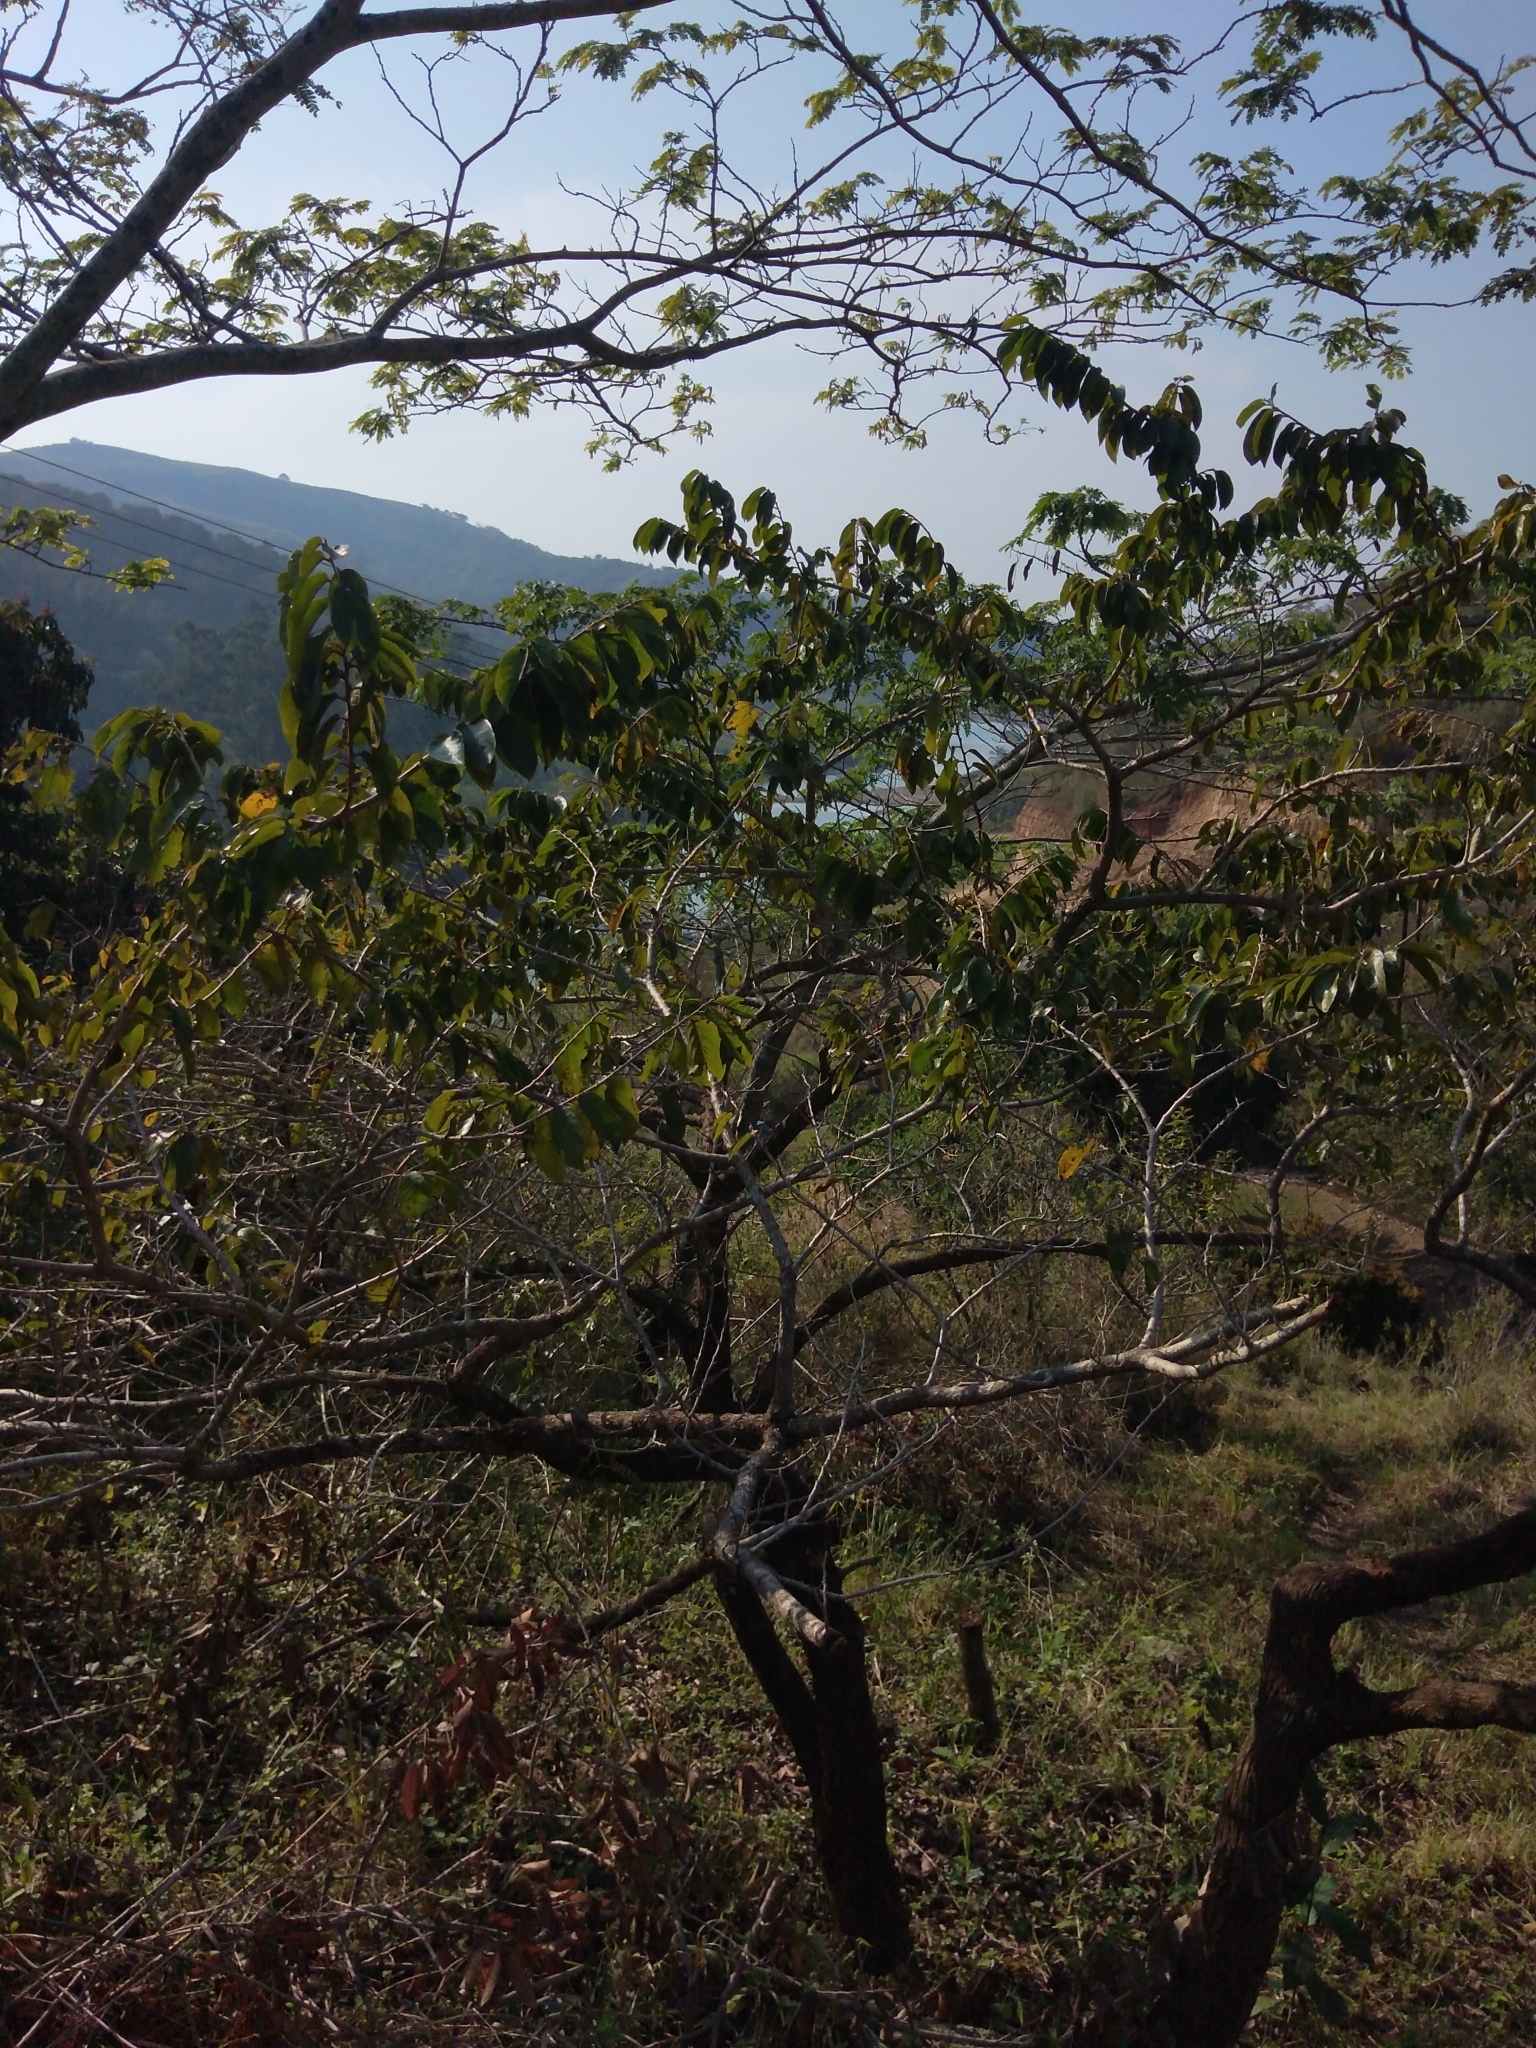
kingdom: Plantae
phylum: Tracheophyta
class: Magnoliopsida
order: Malpighiales
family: Phyllanthaceae
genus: Antidesma
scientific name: Antidesma venosum
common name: Tassel-berry
